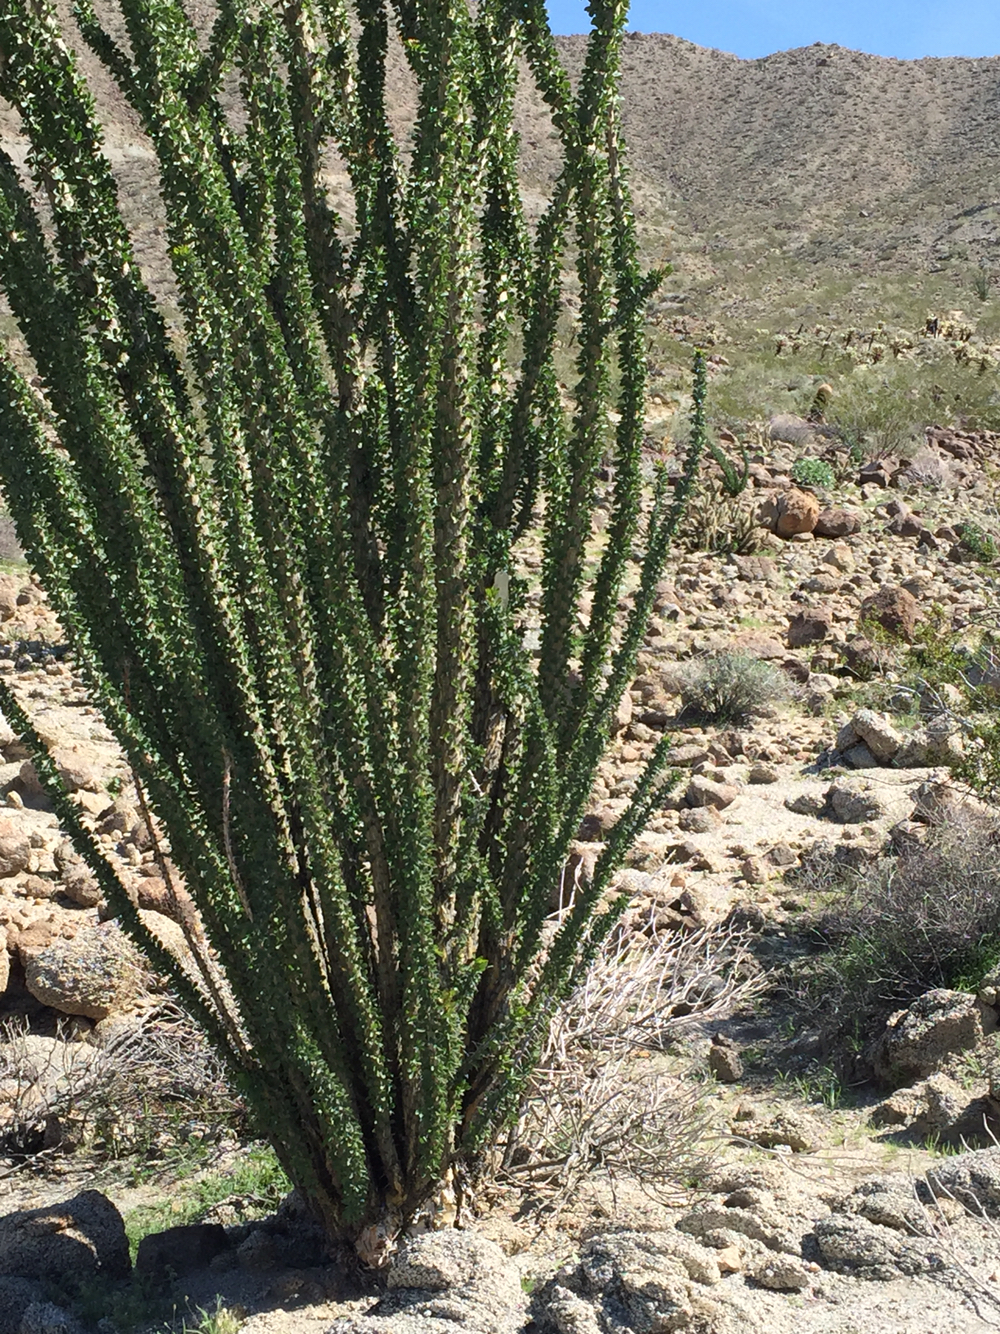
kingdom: Plantae
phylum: Tracheophyta
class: Magnoliopsida
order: Ericales
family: Fouquieriaceae
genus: Fouquieria
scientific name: Fouquieria splendens
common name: Vine-cactus
